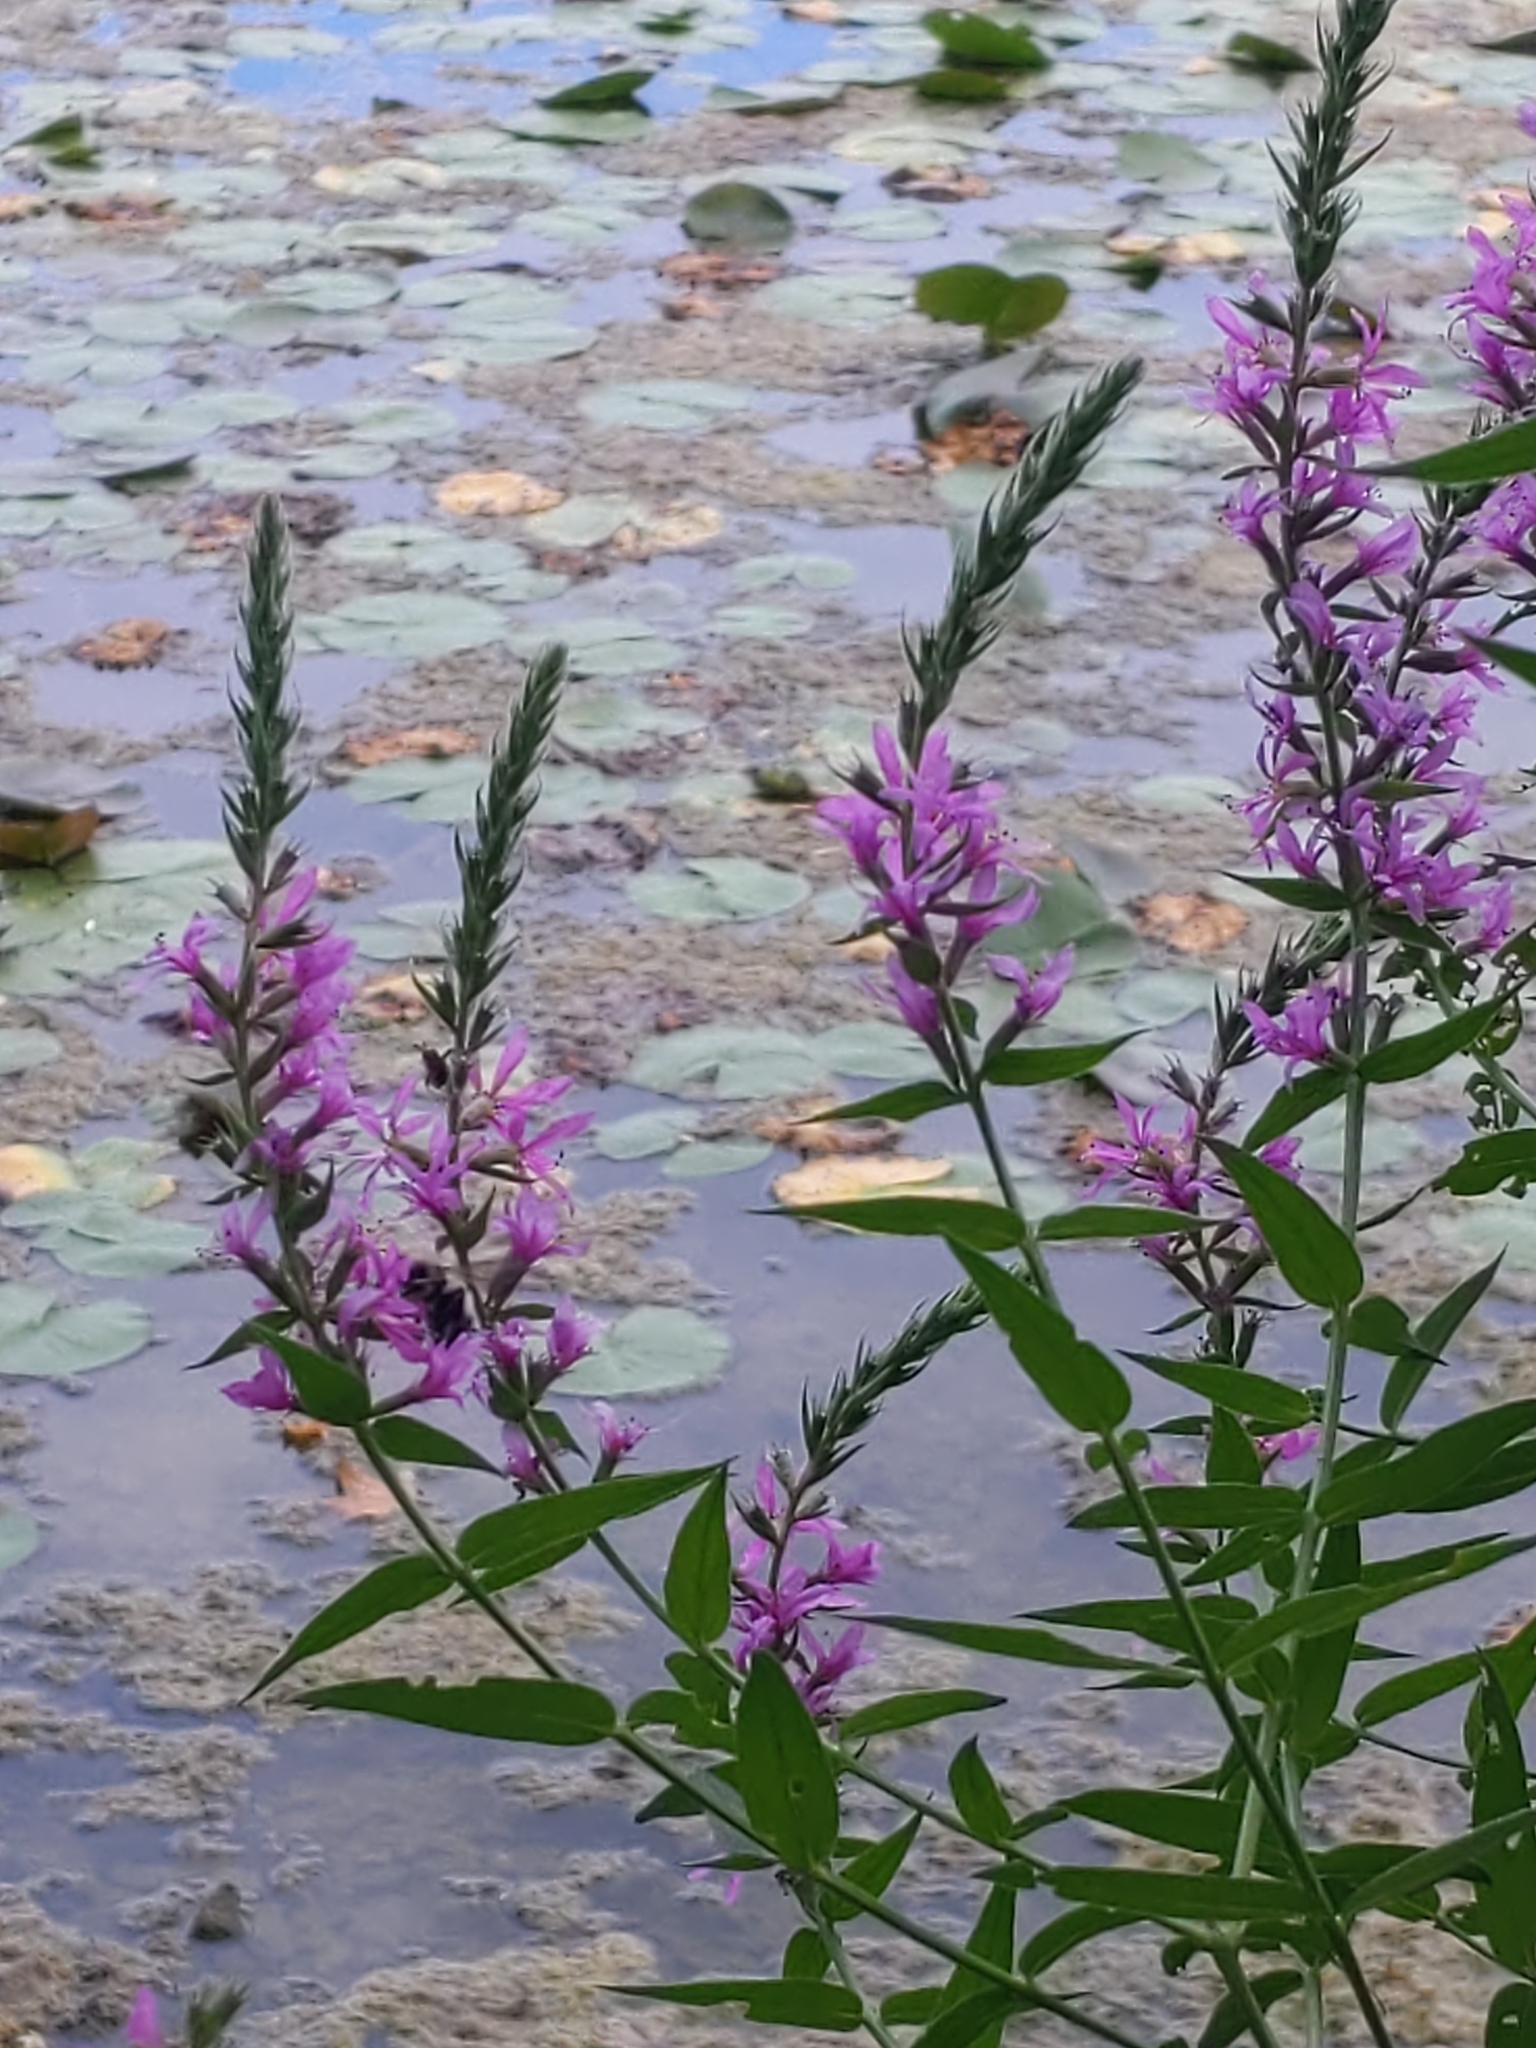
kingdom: Plantae
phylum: Tracheophyta
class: Magnoliopsida
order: Myrtales
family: Lythraceae
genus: Lythrum
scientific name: Lythrum salicaria
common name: Purple loosestrife
